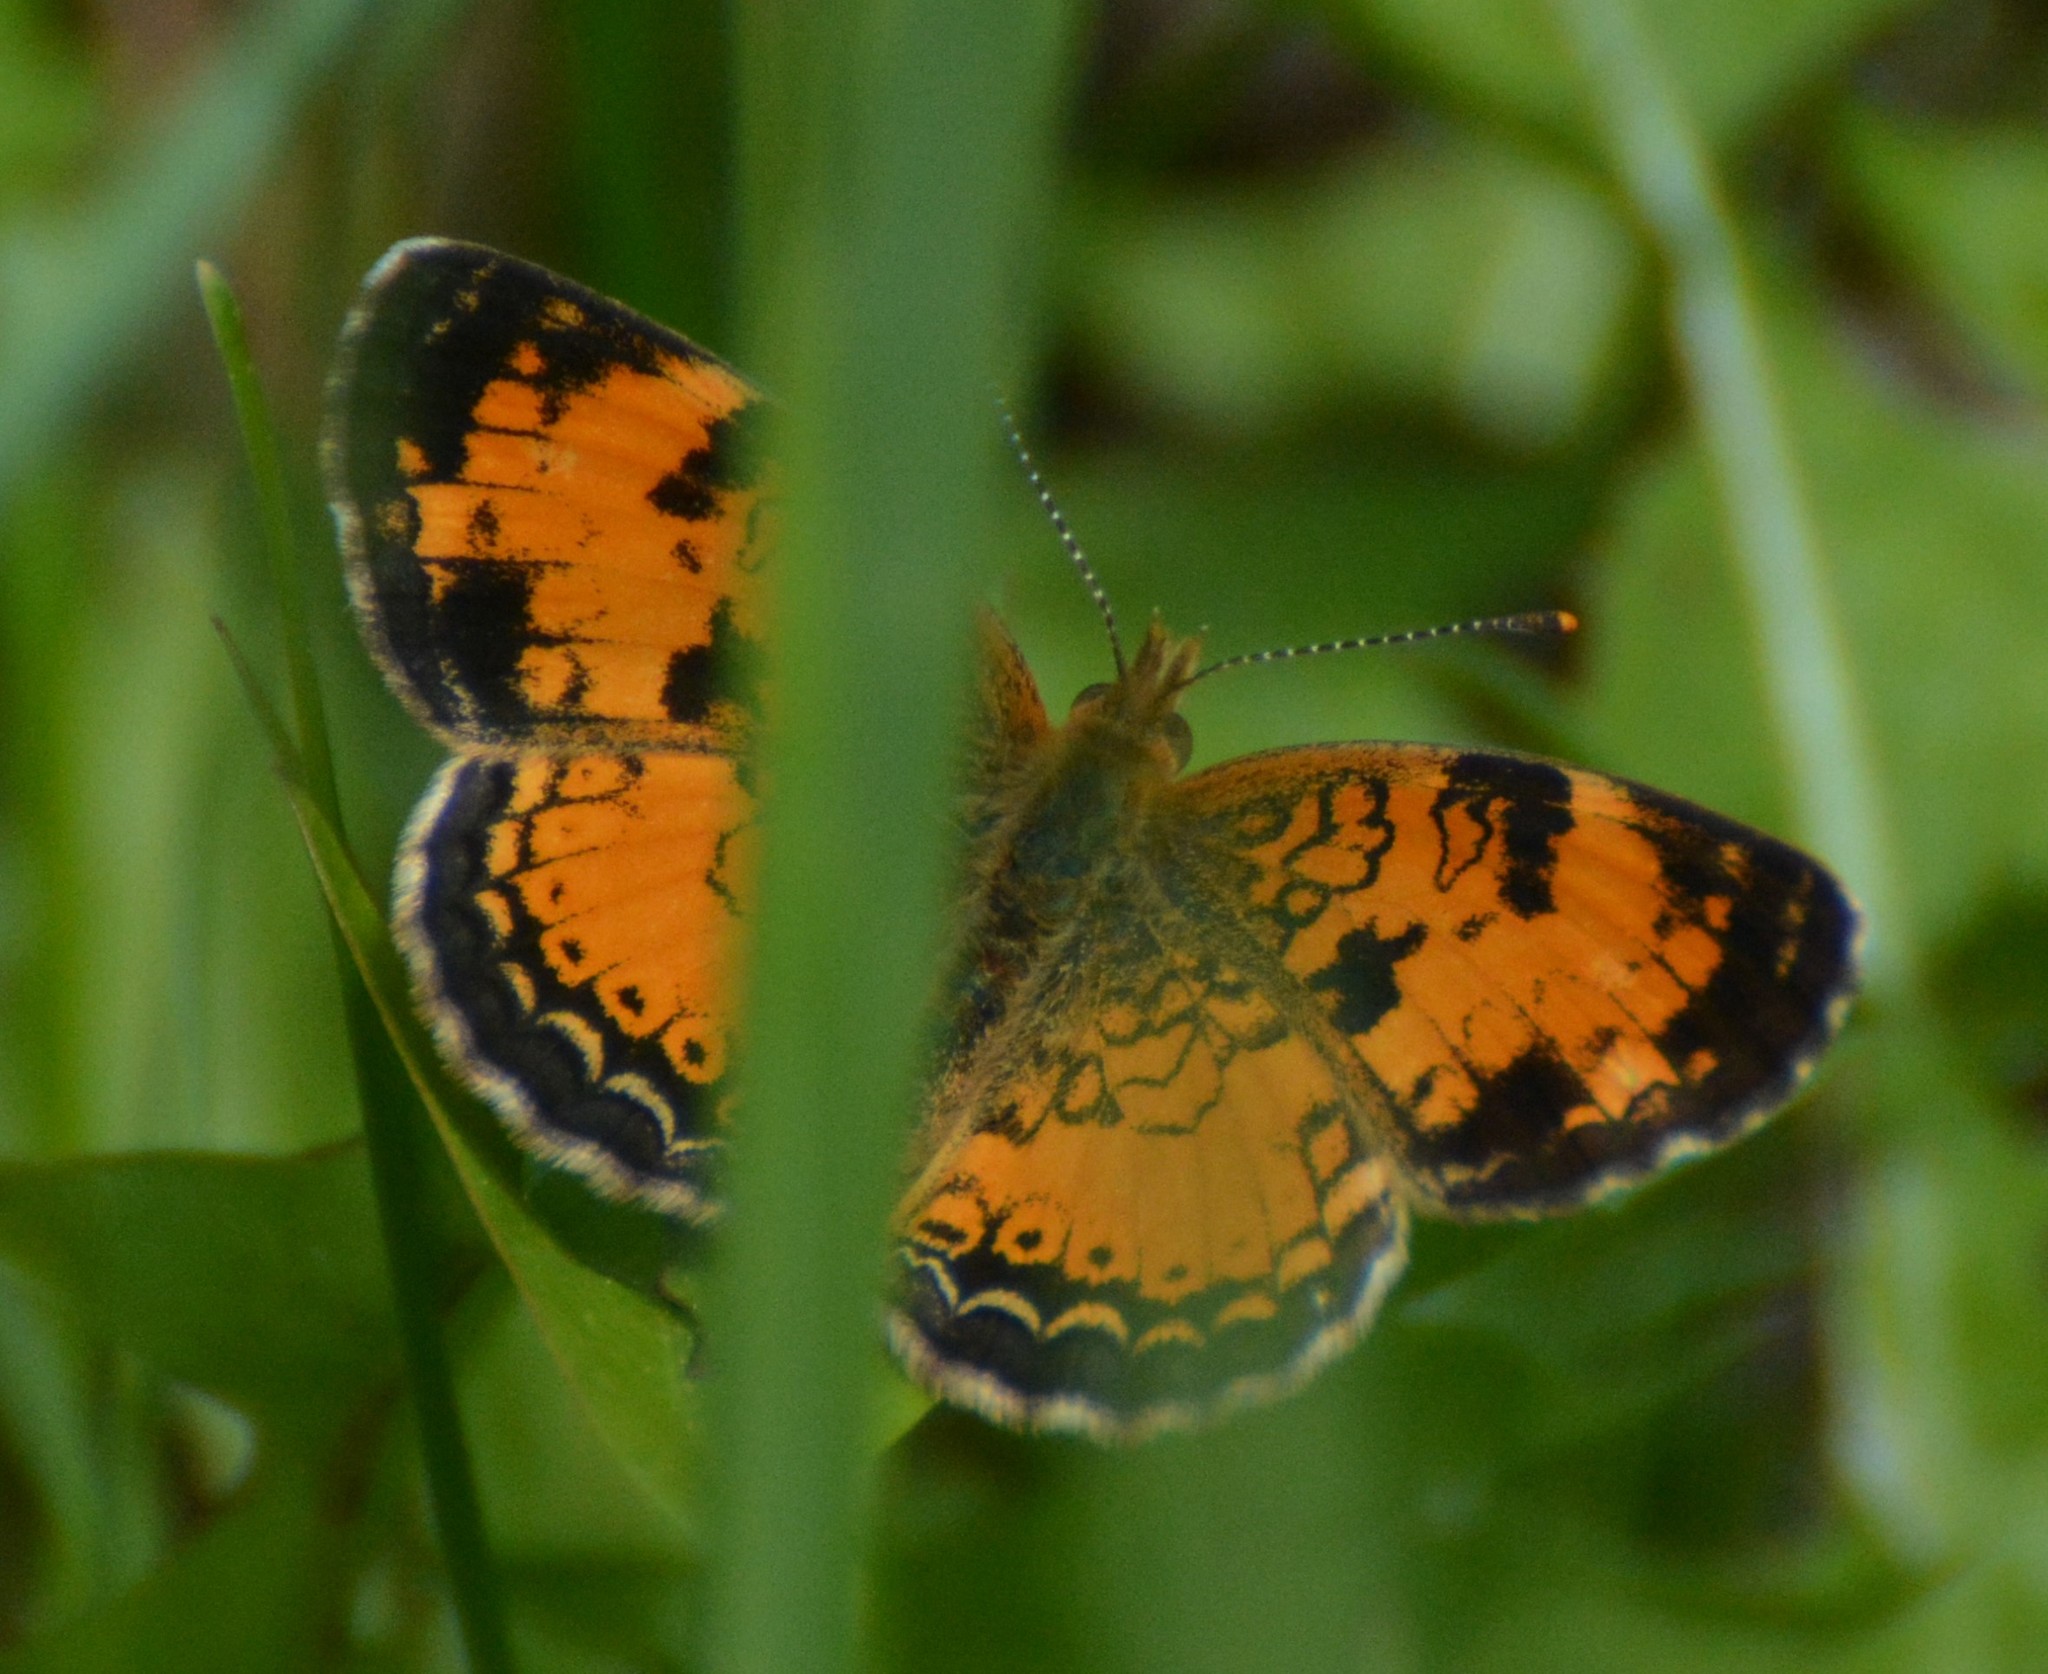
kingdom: Animalia
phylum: Arthropoda
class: Insecta
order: Lepidoptera
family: Nymphalidae
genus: Phyciodes
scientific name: Phyciodes tharos
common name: Pearl crescent
